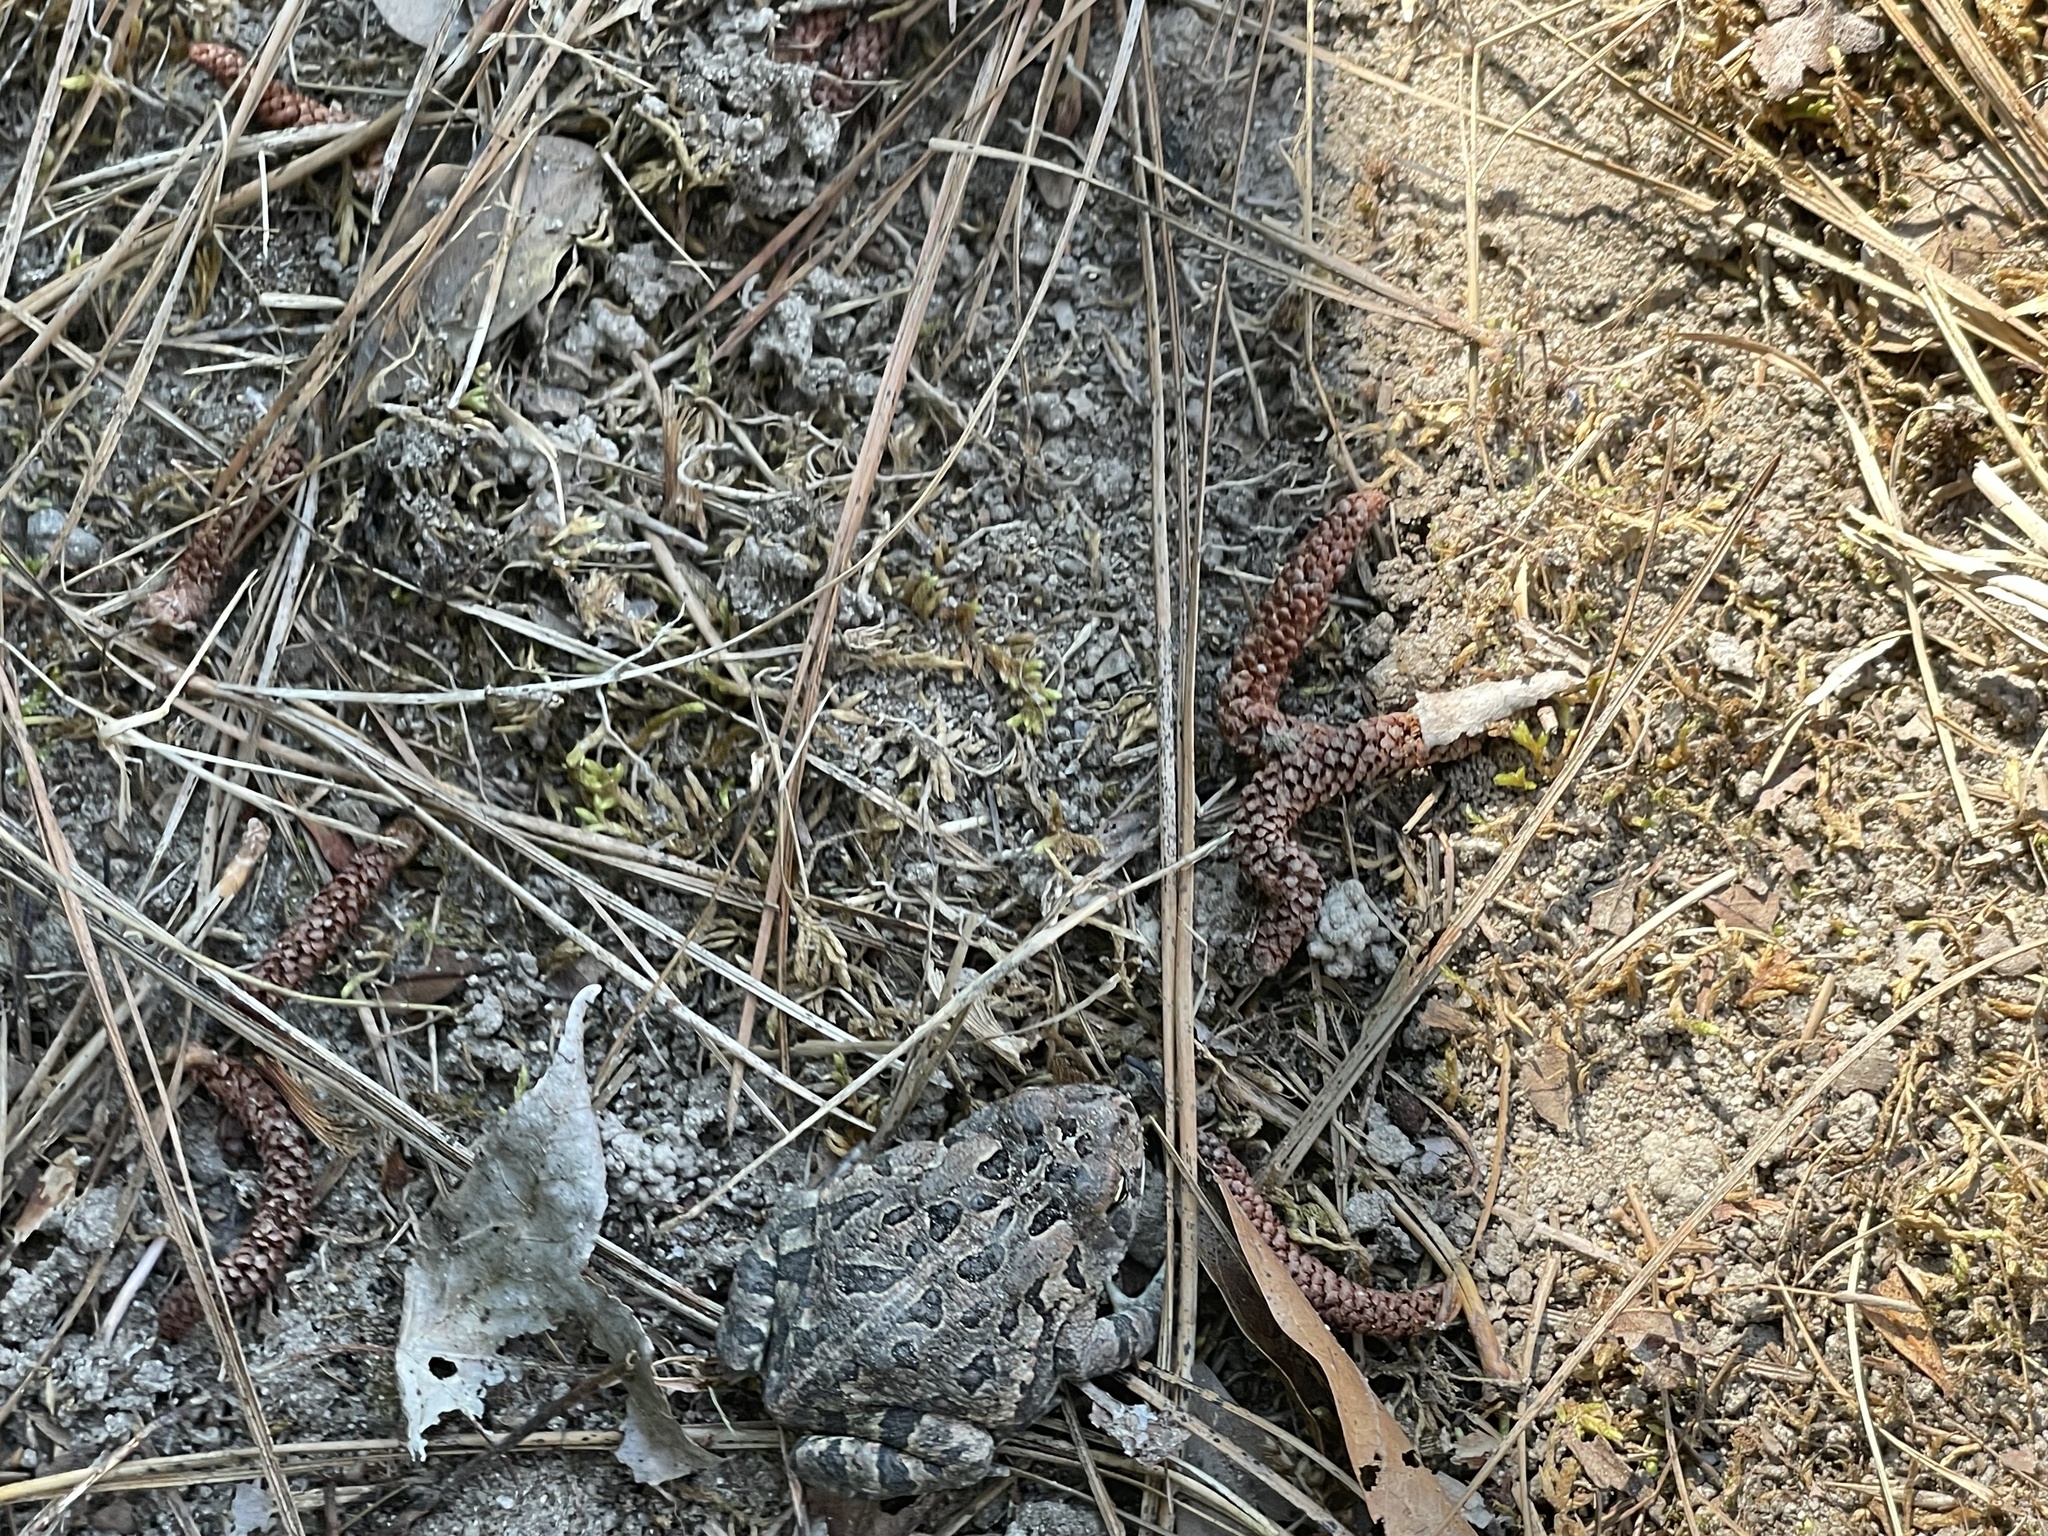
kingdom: Animalia
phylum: Chordata
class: Amphibia
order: Anura
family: Bufonidae
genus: Anaxyrus
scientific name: Anaxyrus fowleri
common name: Fowler's toad
